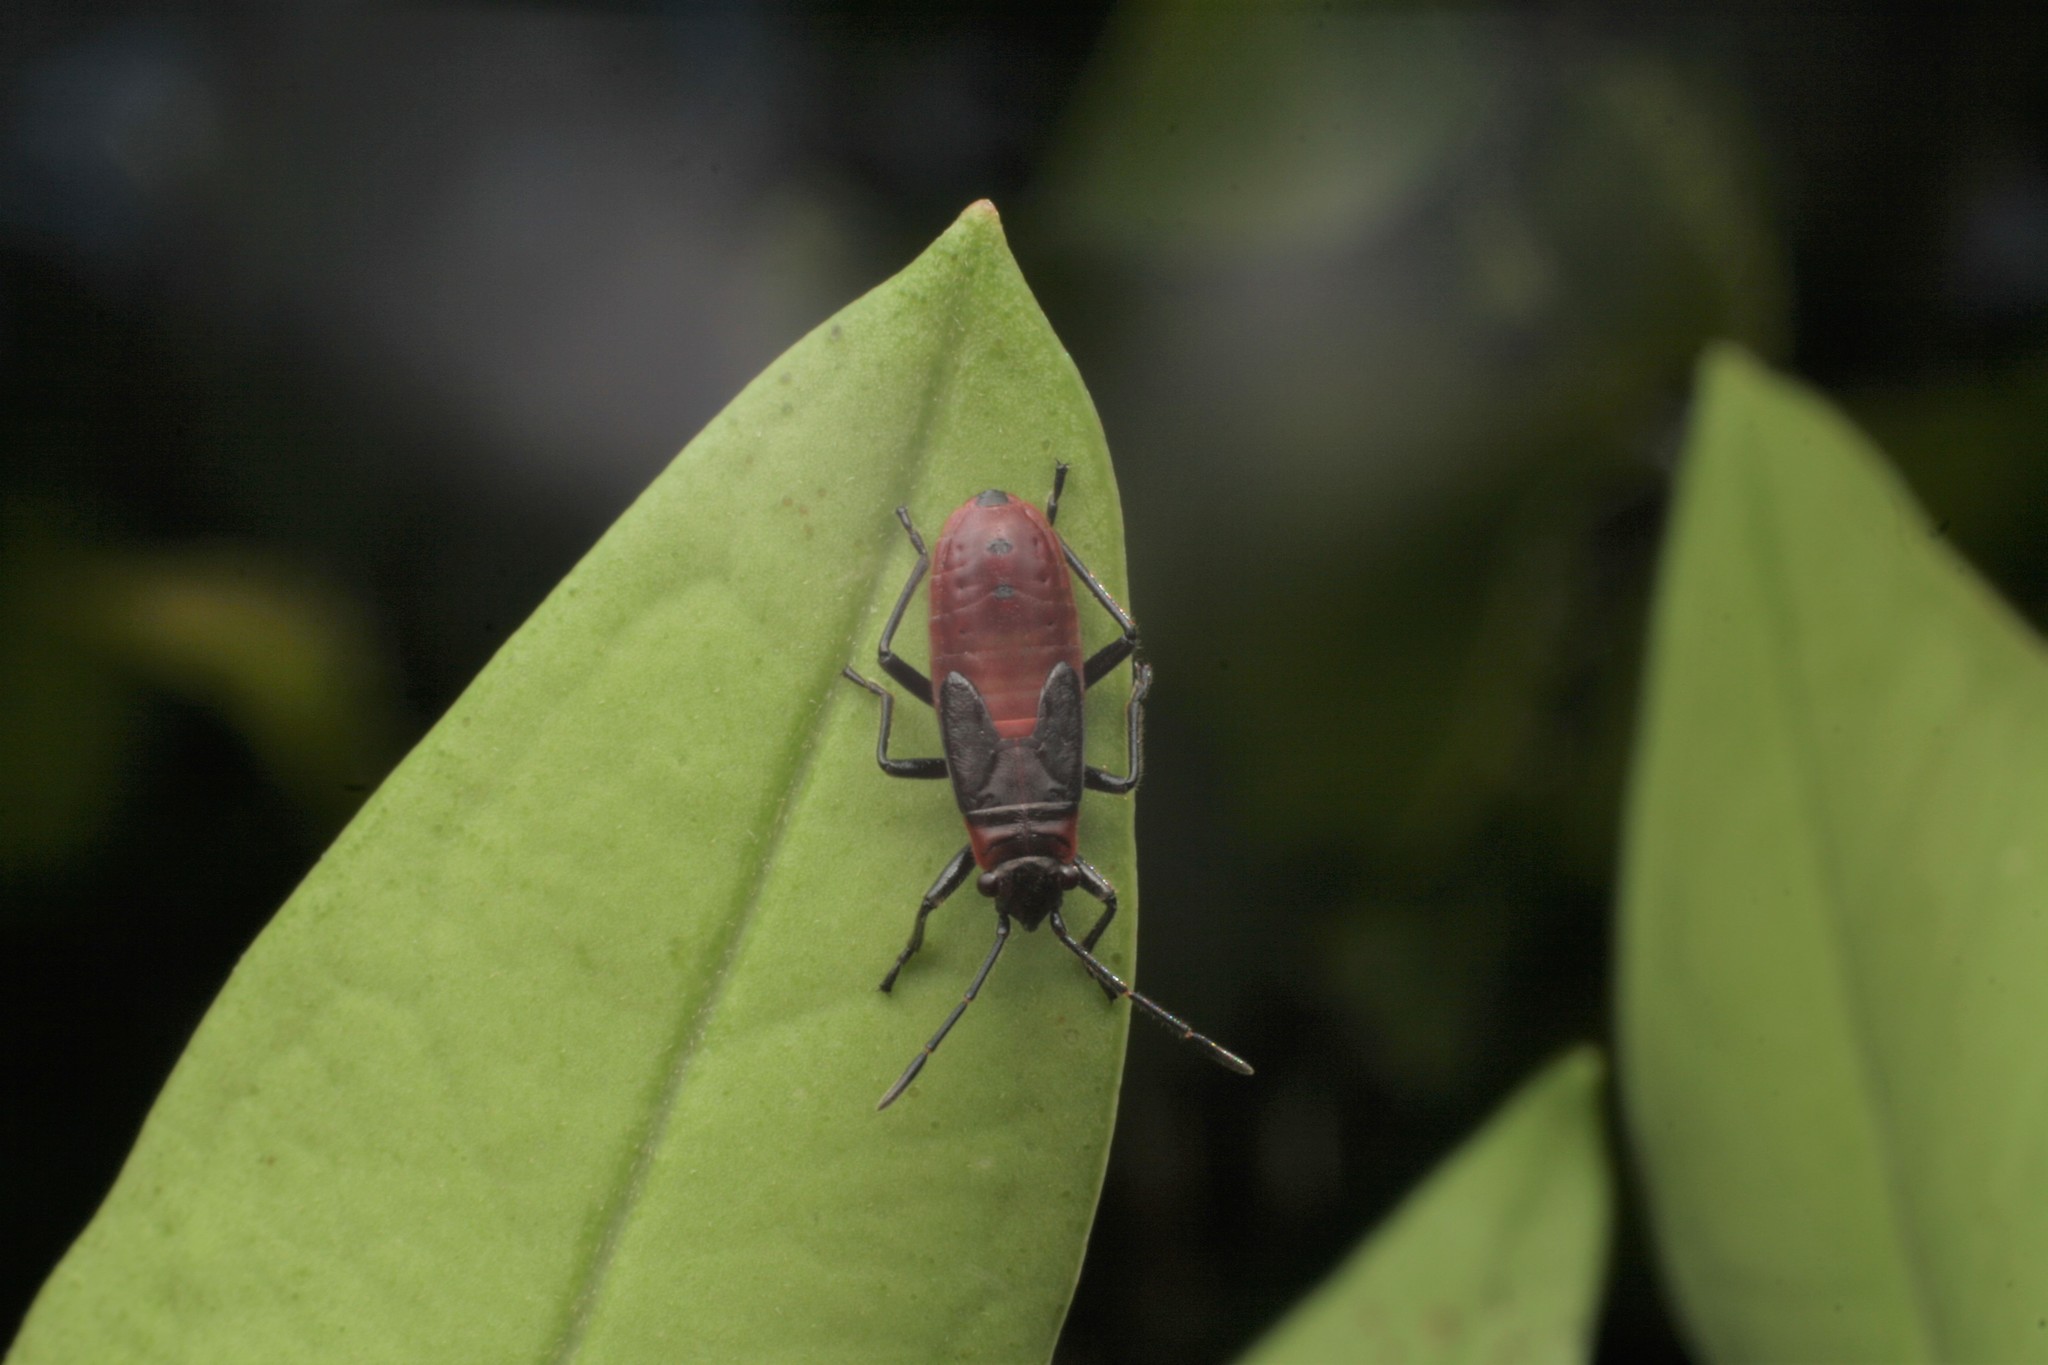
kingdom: Animalia
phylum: Arthropoda
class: Insecta
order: Hemiptera
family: Lygaeidae
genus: Arocatus
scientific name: Arocatus rusticus
